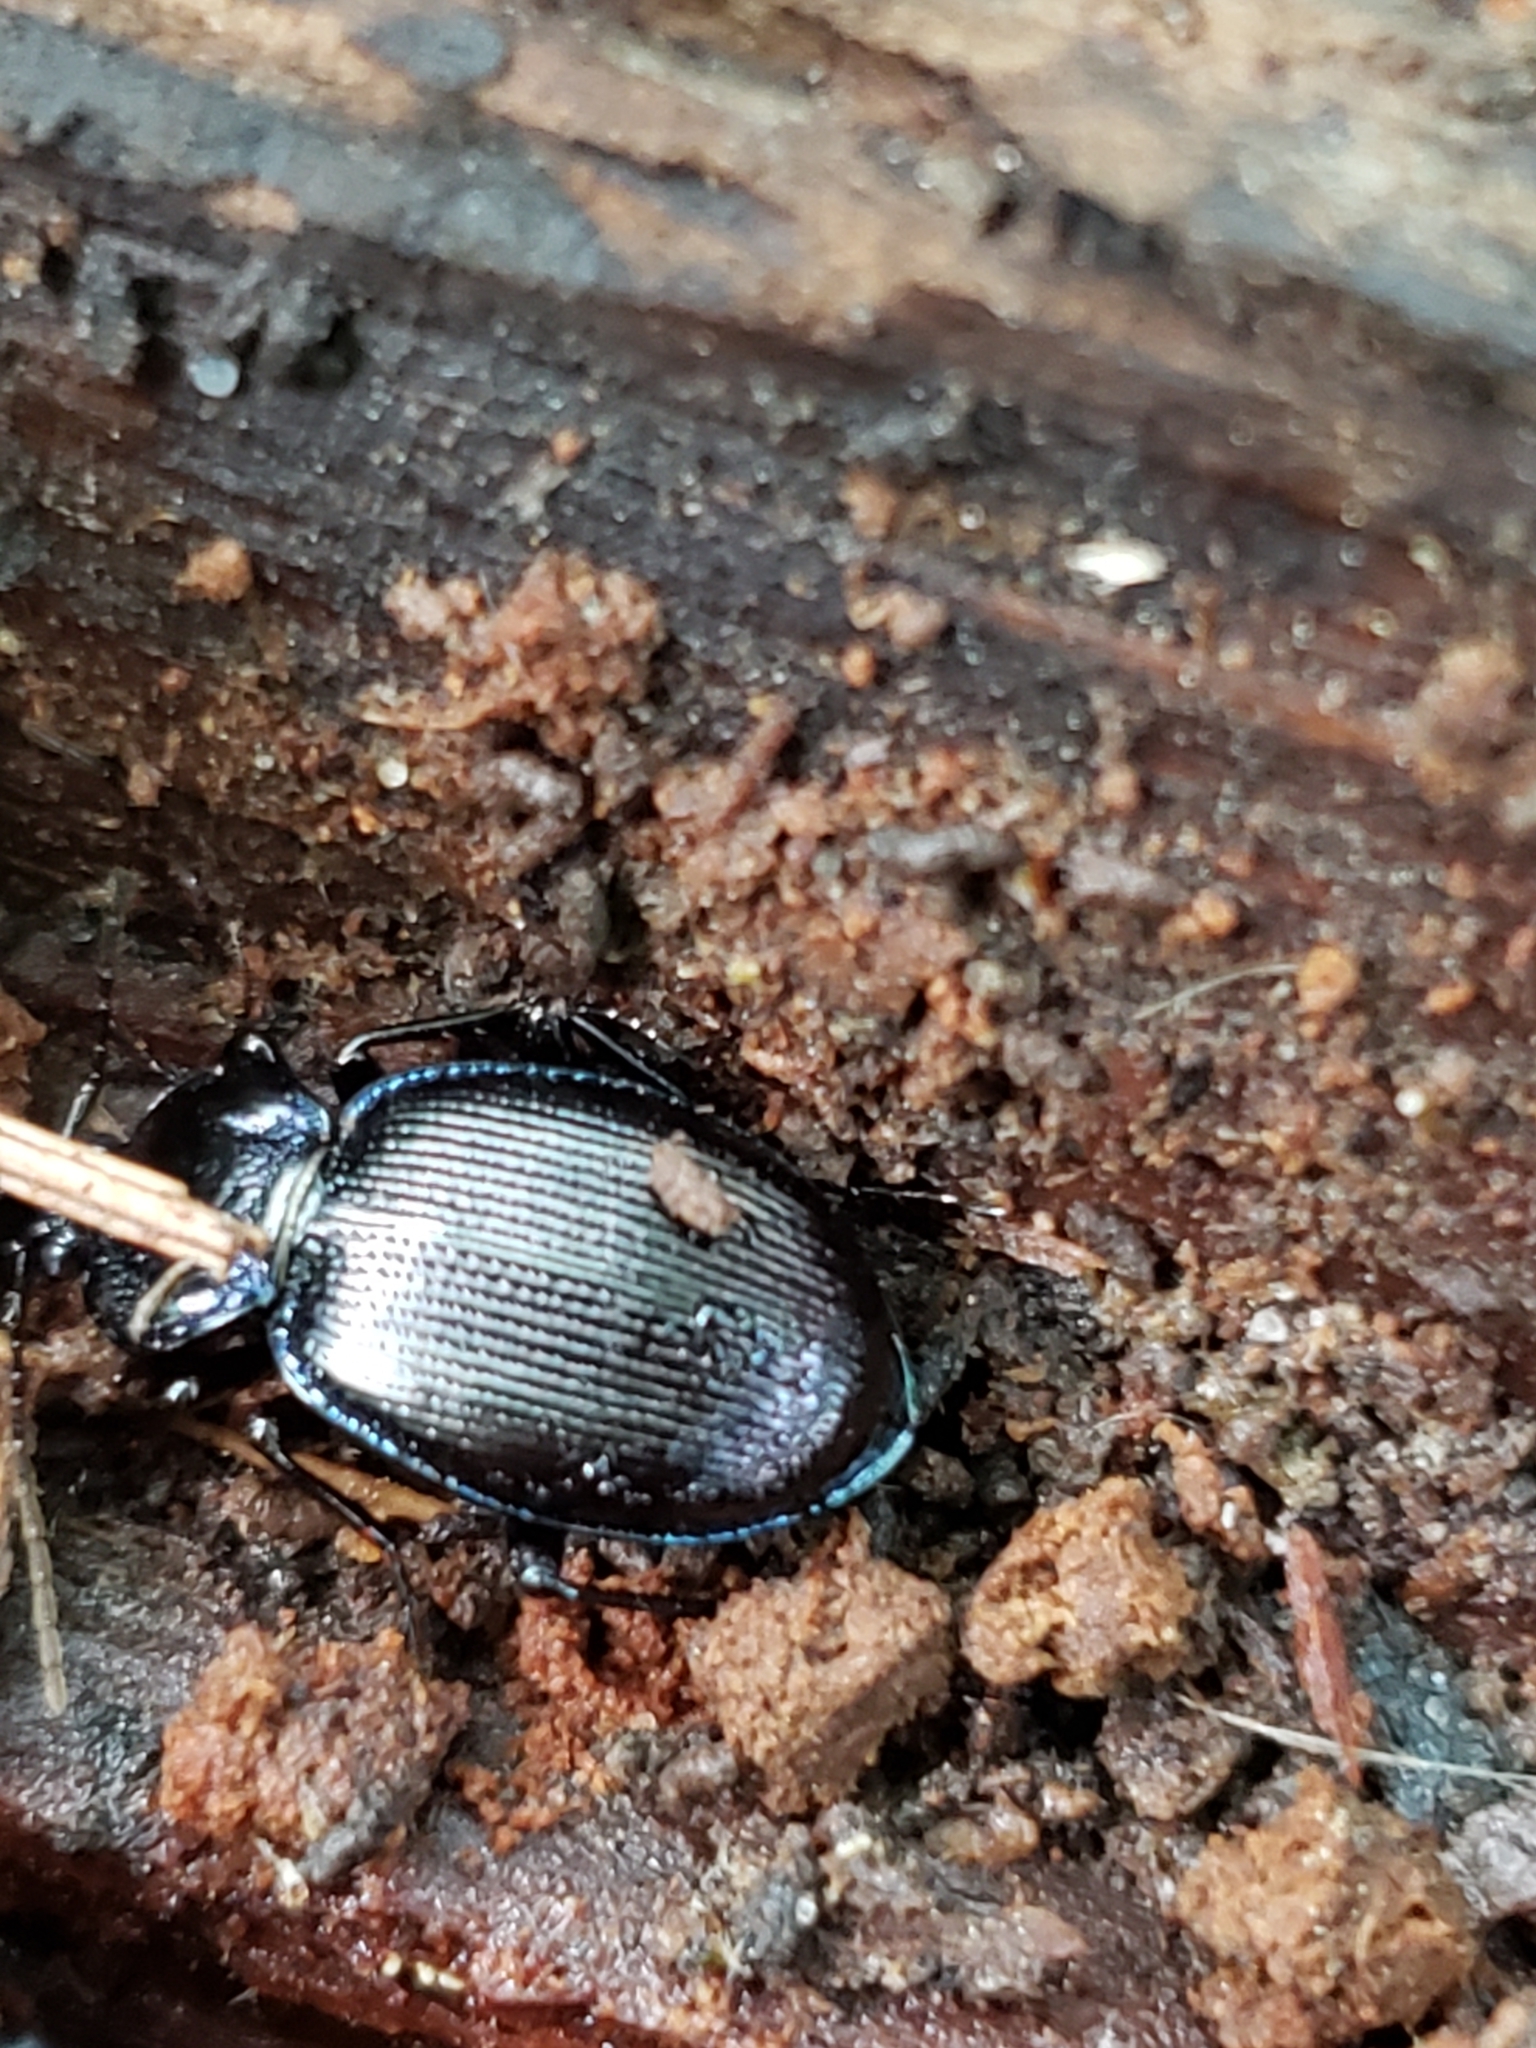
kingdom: Animalia
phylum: Arthropoda
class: Insecta
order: Coleoptera
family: Carabidae
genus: Sphaeroderus
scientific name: Sphaeroderus stenostomus
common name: Small snail-eating ground beetle
